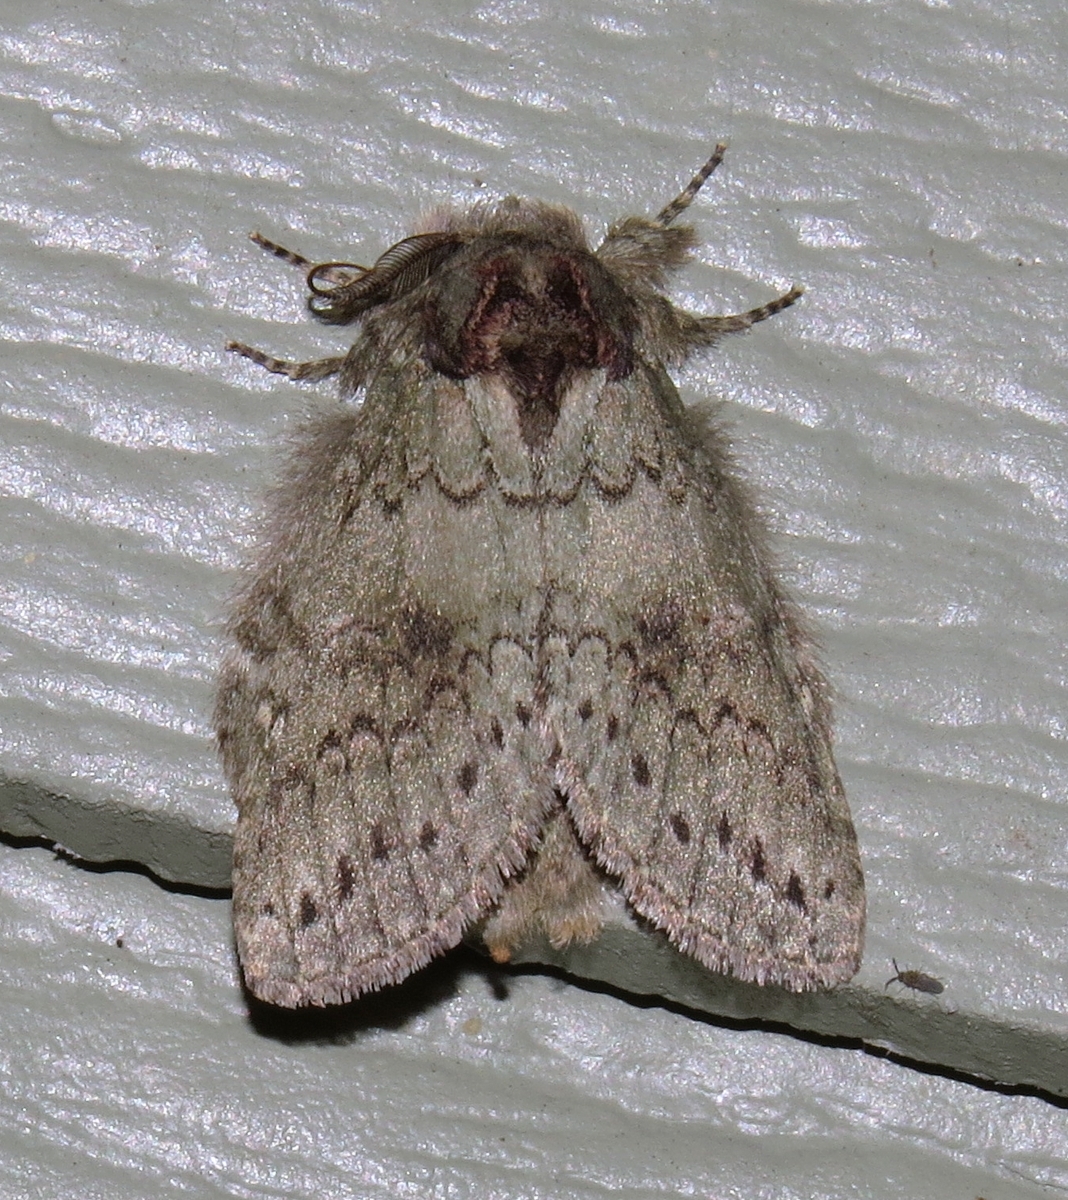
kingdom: Animalia
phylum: Arthropoda
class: Insecta
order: Lepidoptera
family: Notodontidae
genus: Disphragis
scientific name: Disphragis Cecrita biundata
